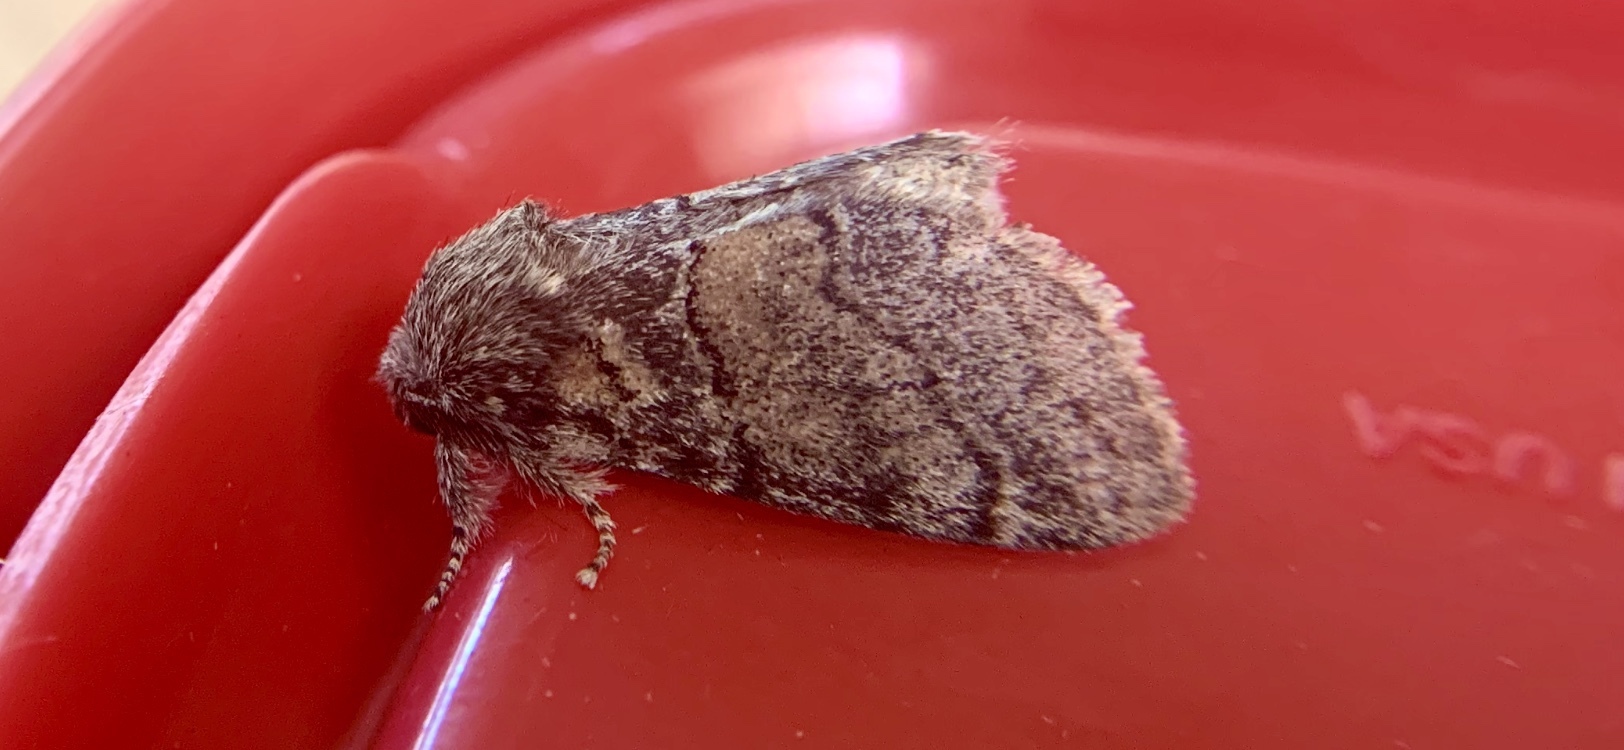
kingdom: Animalia
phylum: Arthropoda
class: Insecta
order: Lepidoptera
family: Notodontidae
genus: Gluphisia
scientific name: Gluphisia septentrionis
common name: Common gluphisia
